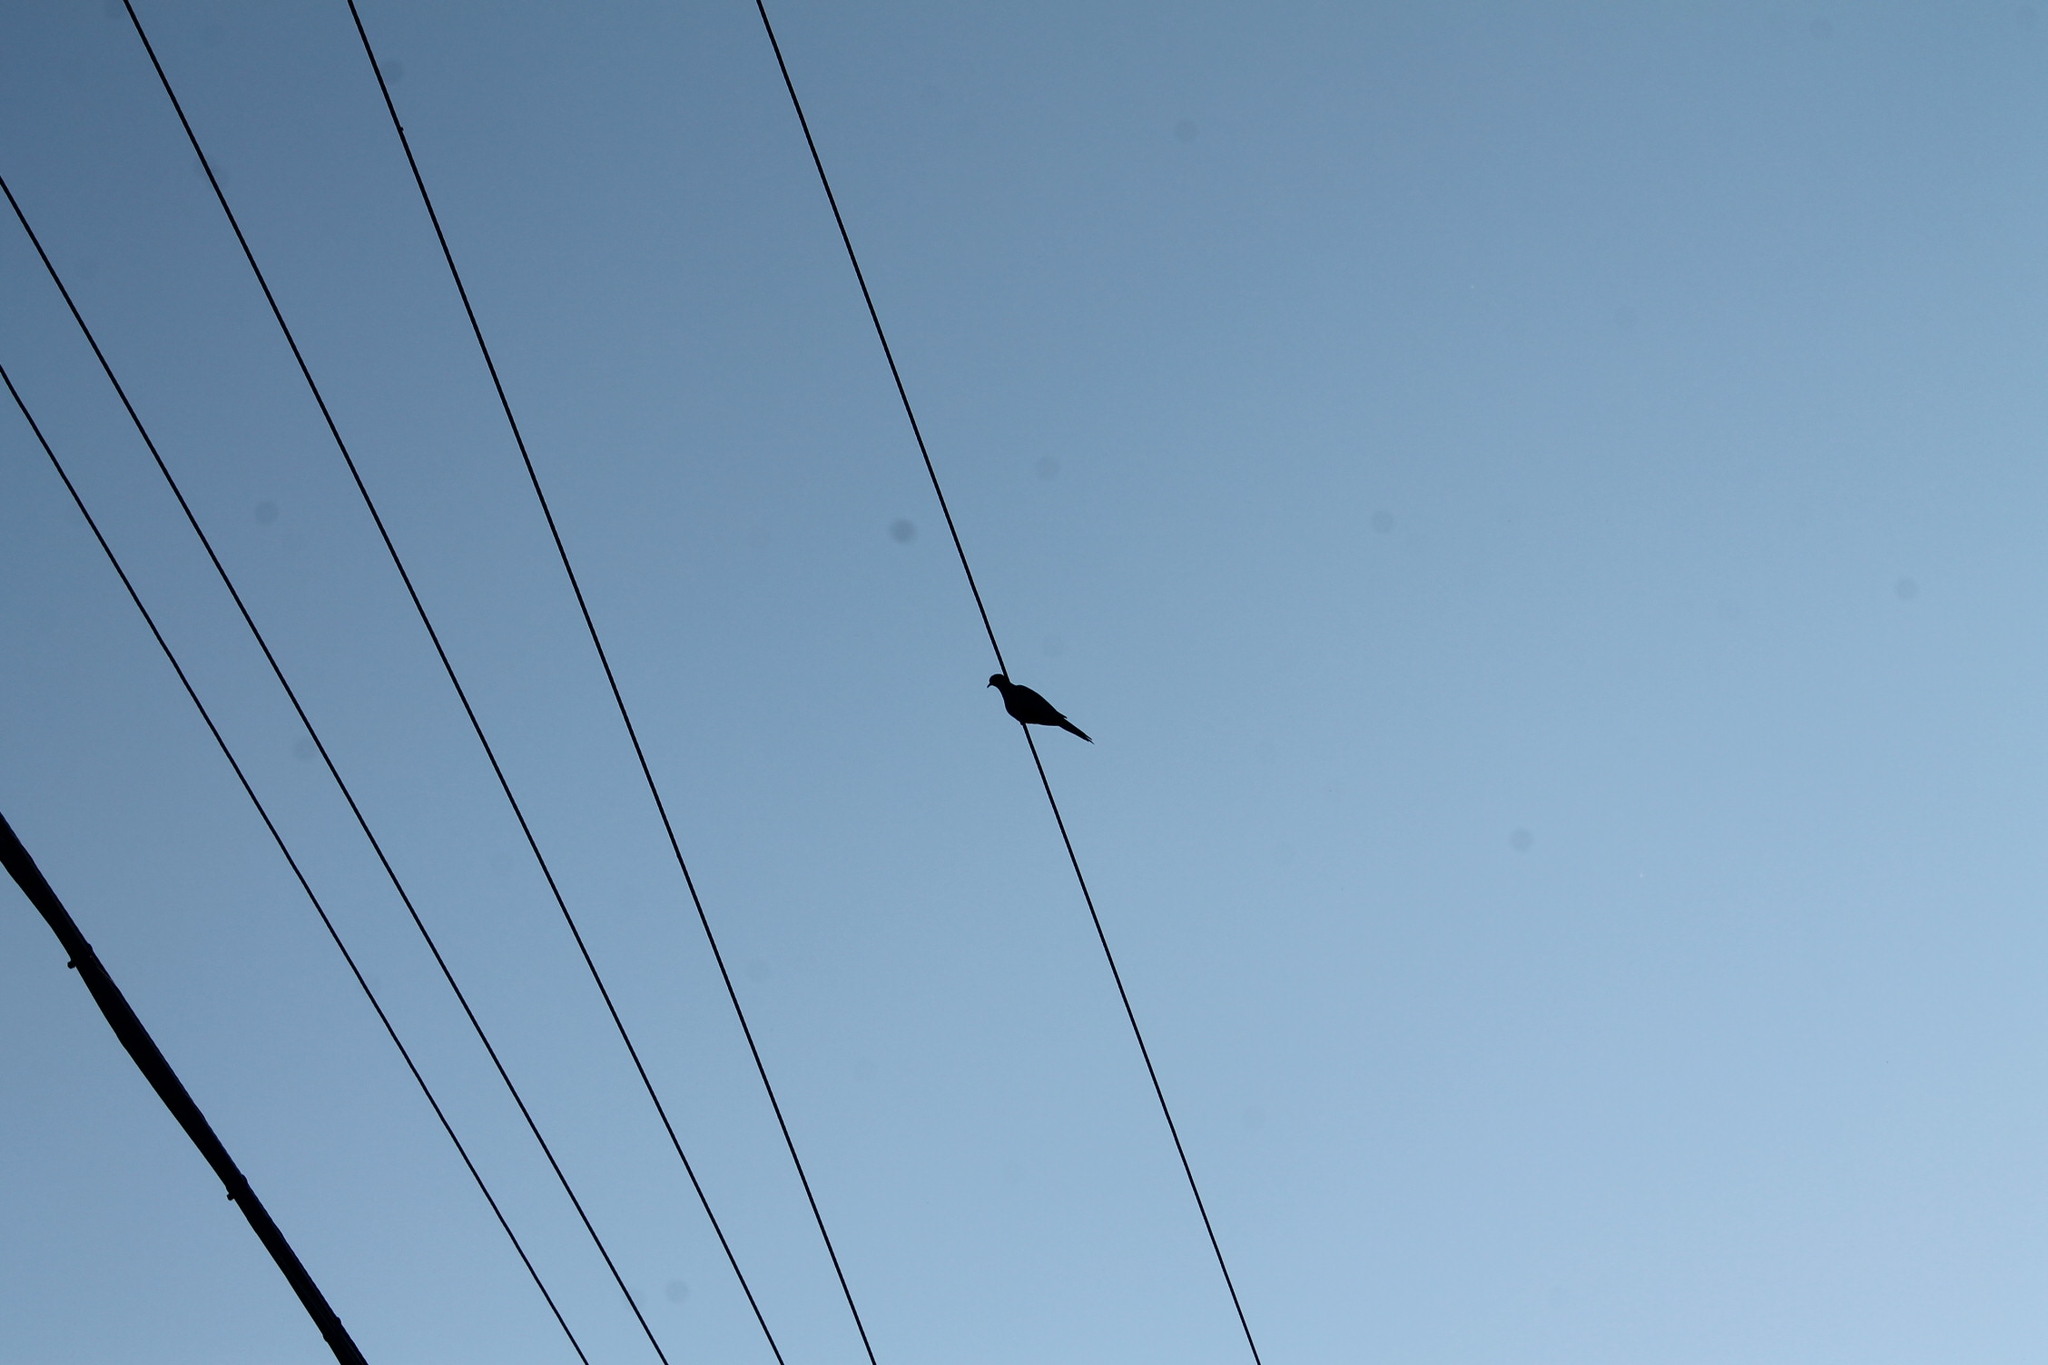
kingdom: Animalia
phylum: Chordata
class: Aves
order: Columbiformes
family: Columbidae
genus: Zenaida
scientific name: Zenaida macroura
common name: Mourning dove
